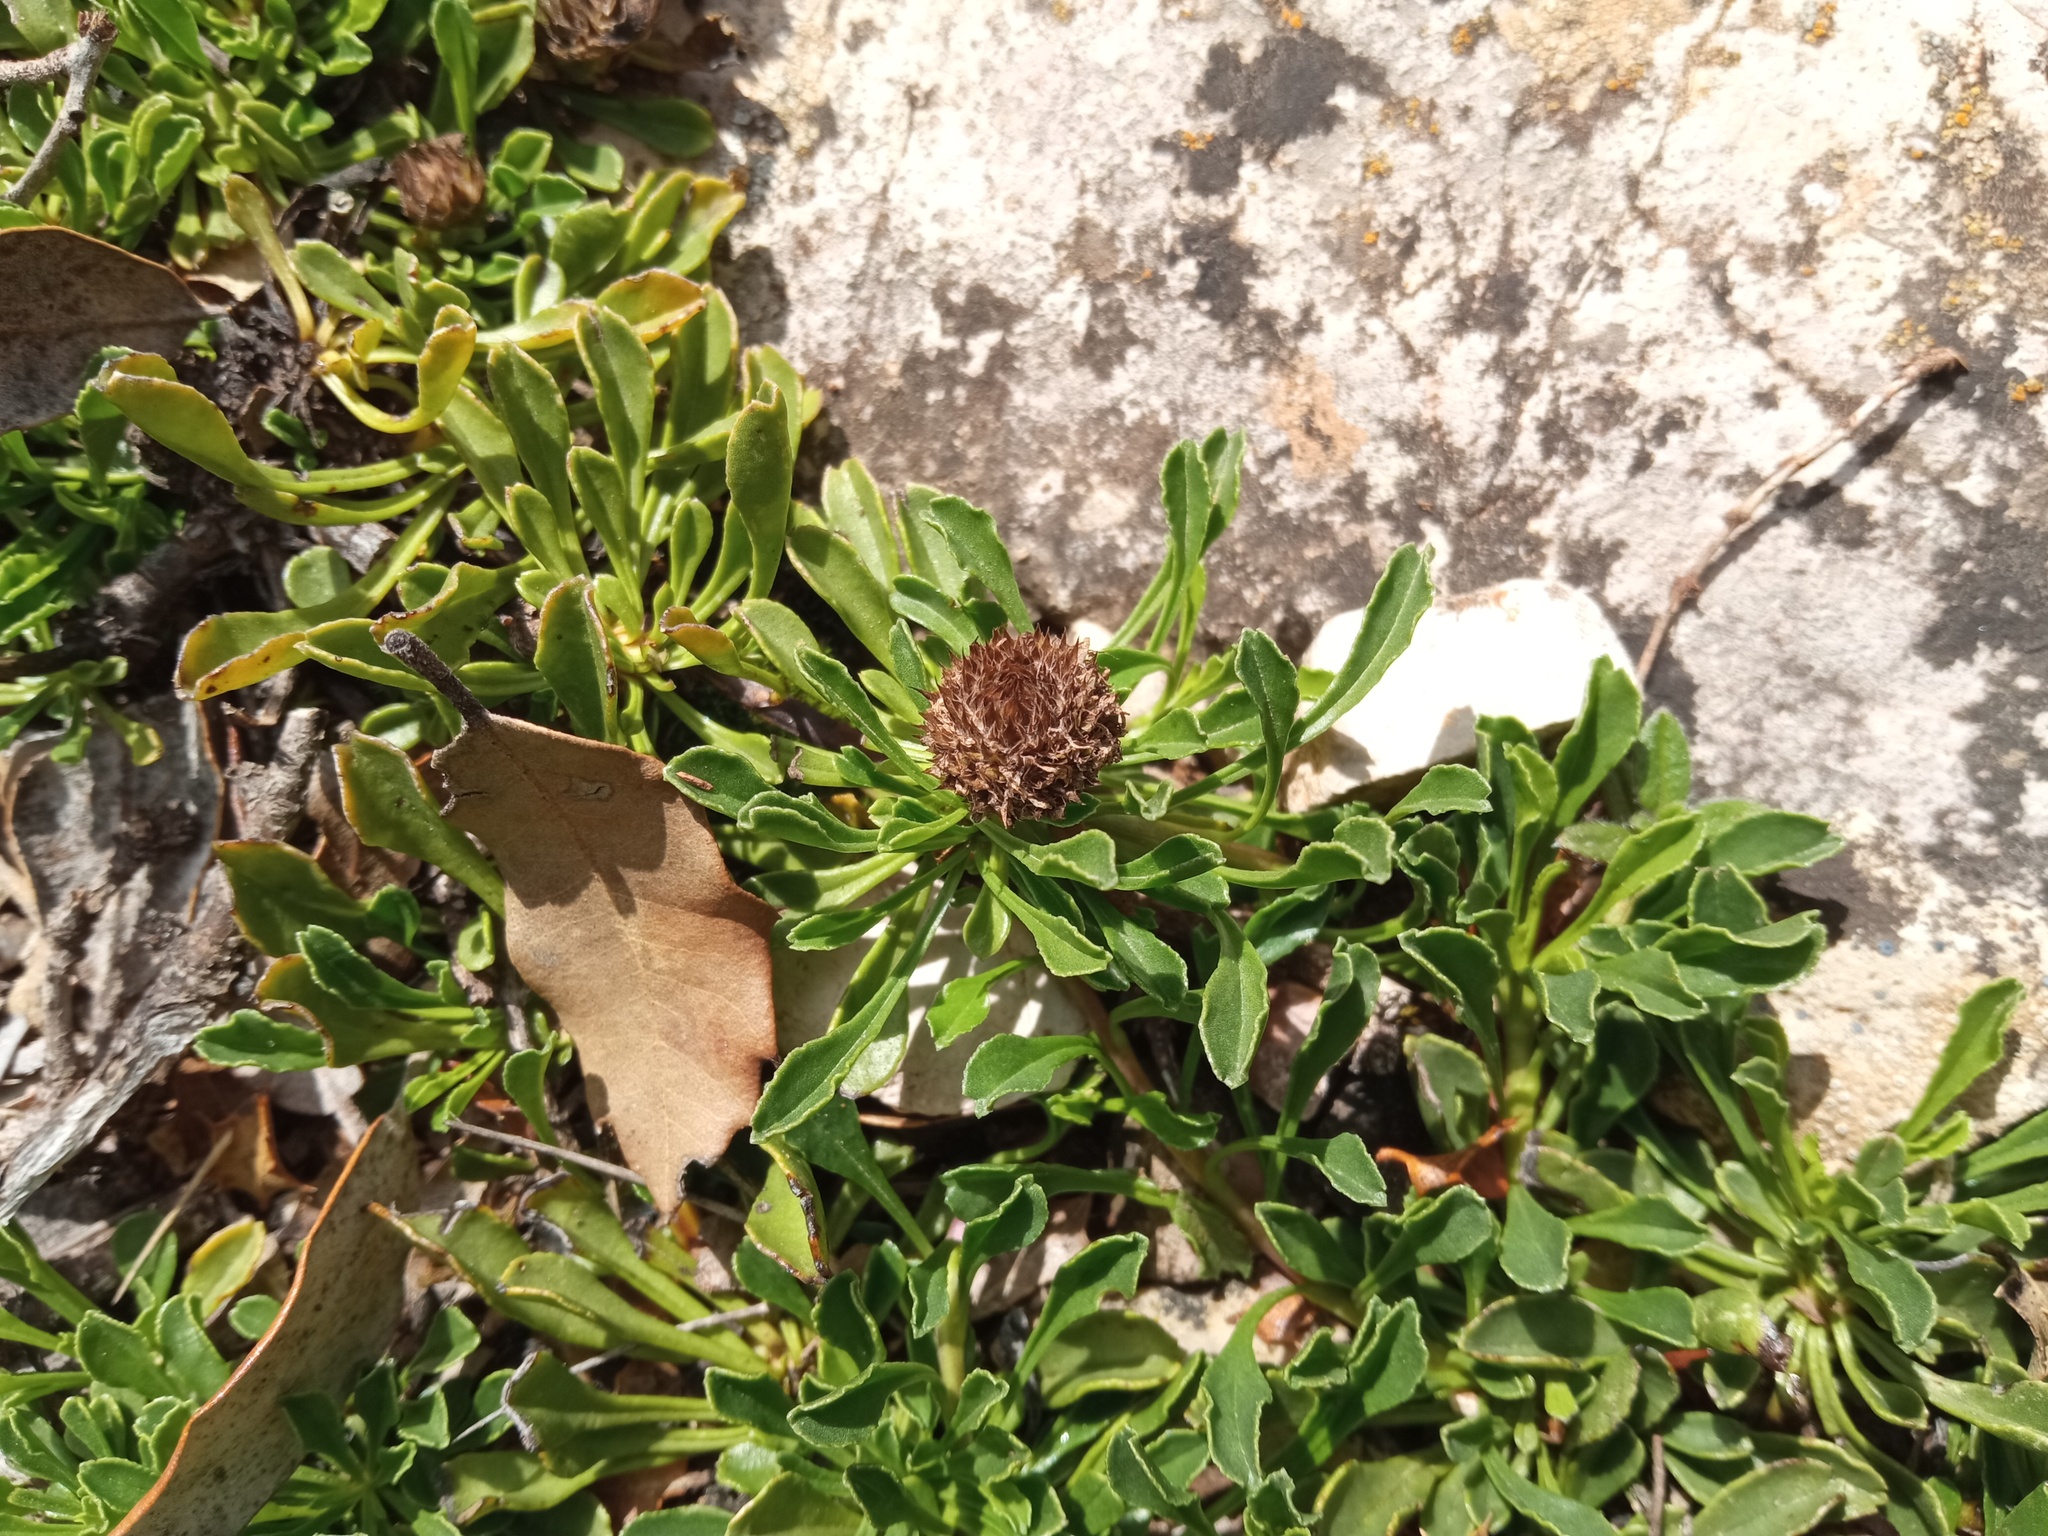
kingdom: Plantae
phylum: Tracheophyta
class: Magnoliopsida
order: Lamiales
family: Plantaginaceae
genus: Globularia
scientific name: Globularia cordifolia
